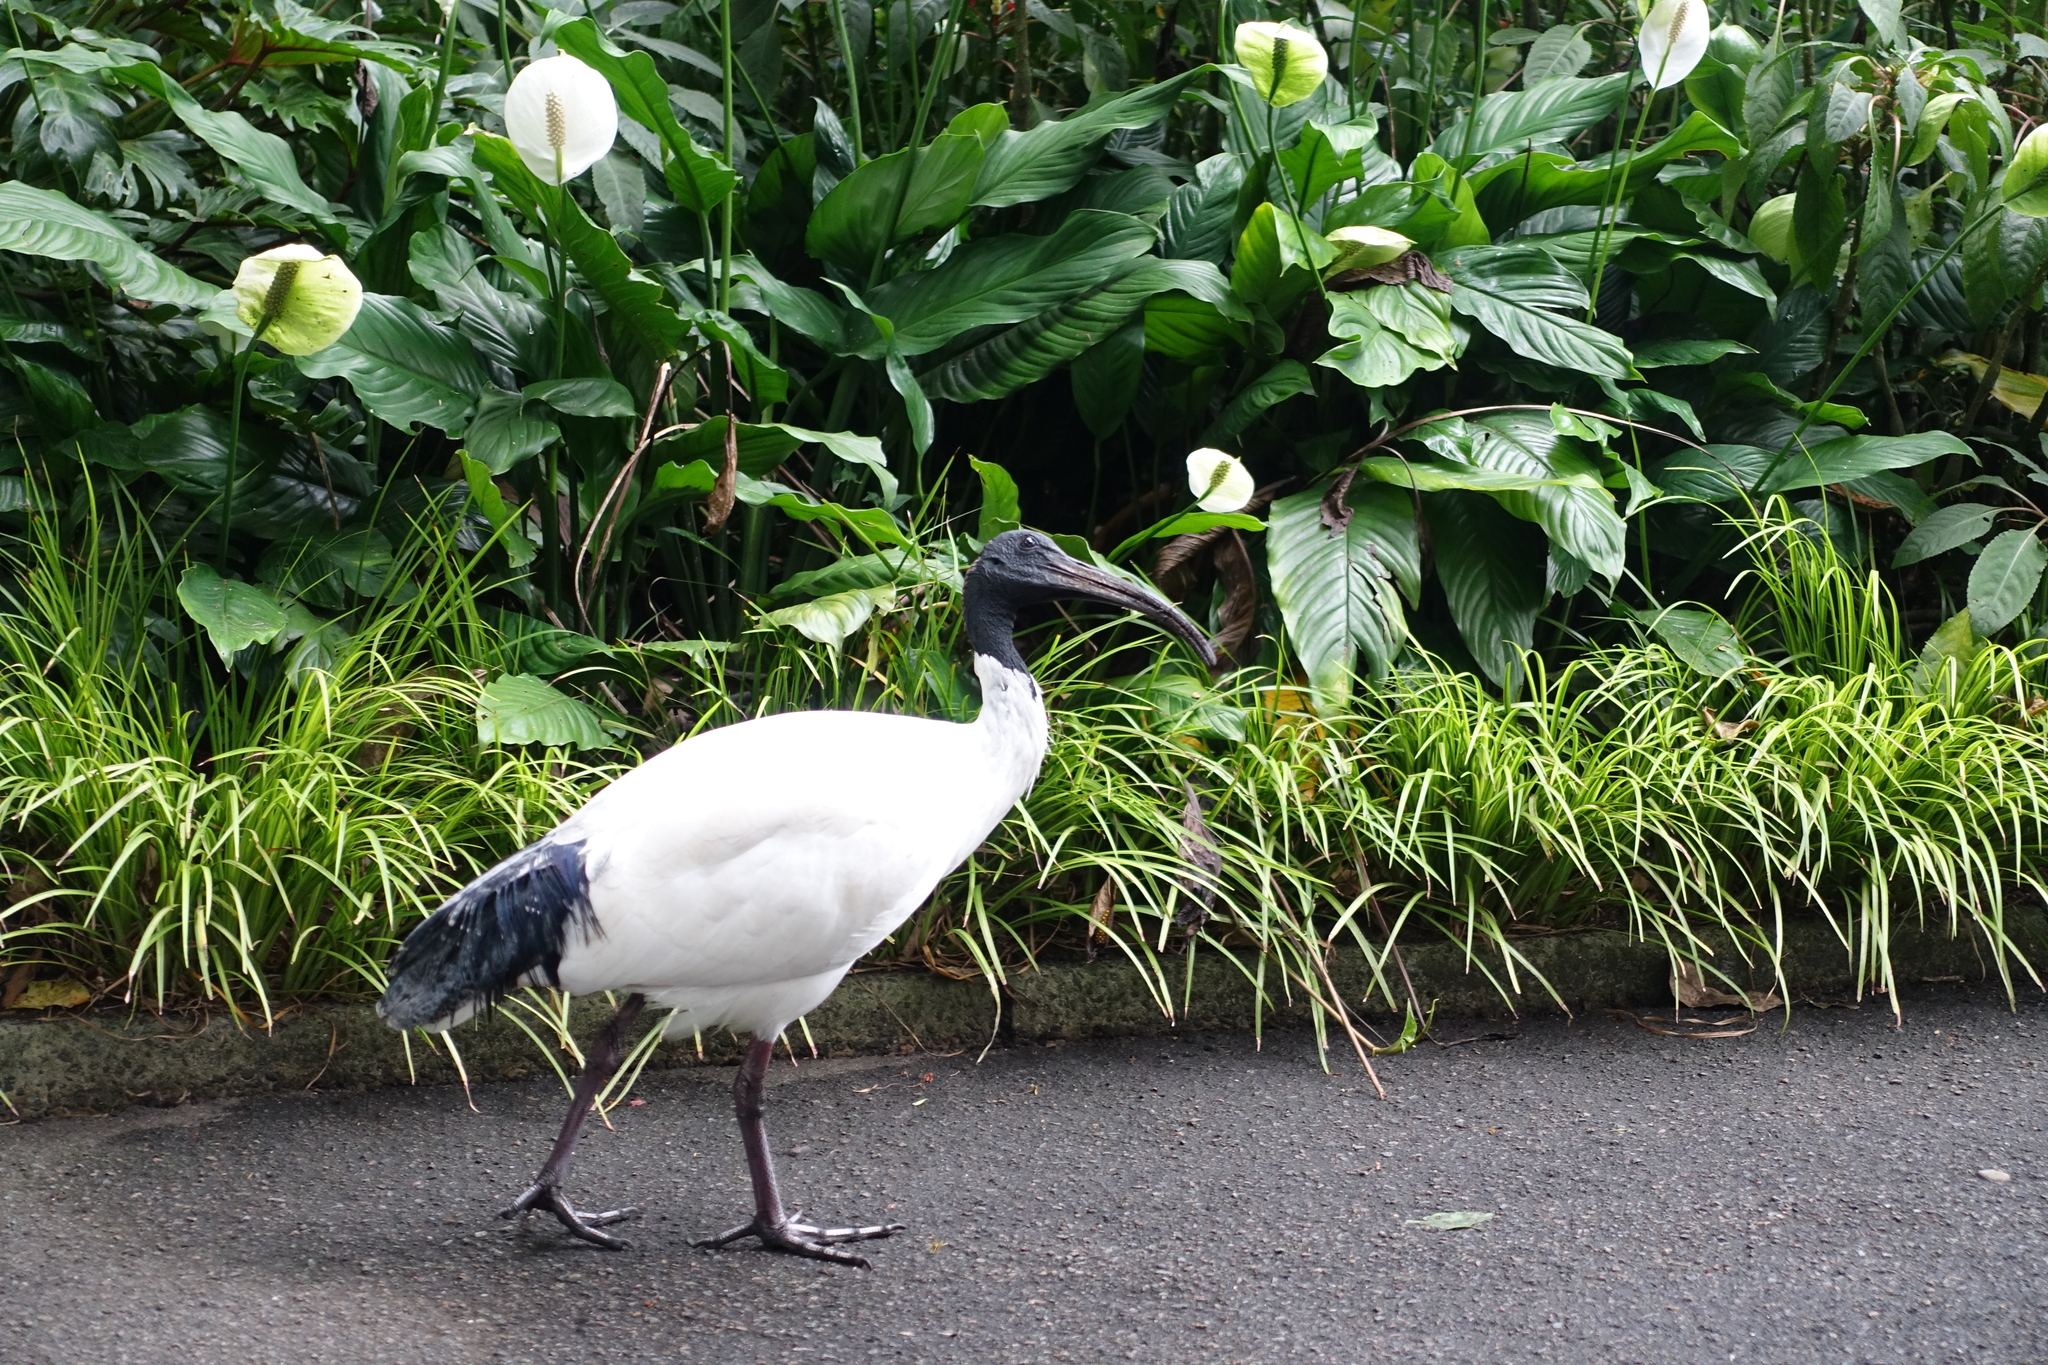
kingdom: Animalia
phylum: Chordata
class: Aves
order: Pelecaniformes
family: Threskiornithidae
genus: Threskiornis
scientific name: Threskiornis molucca
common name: Australian white ibis
